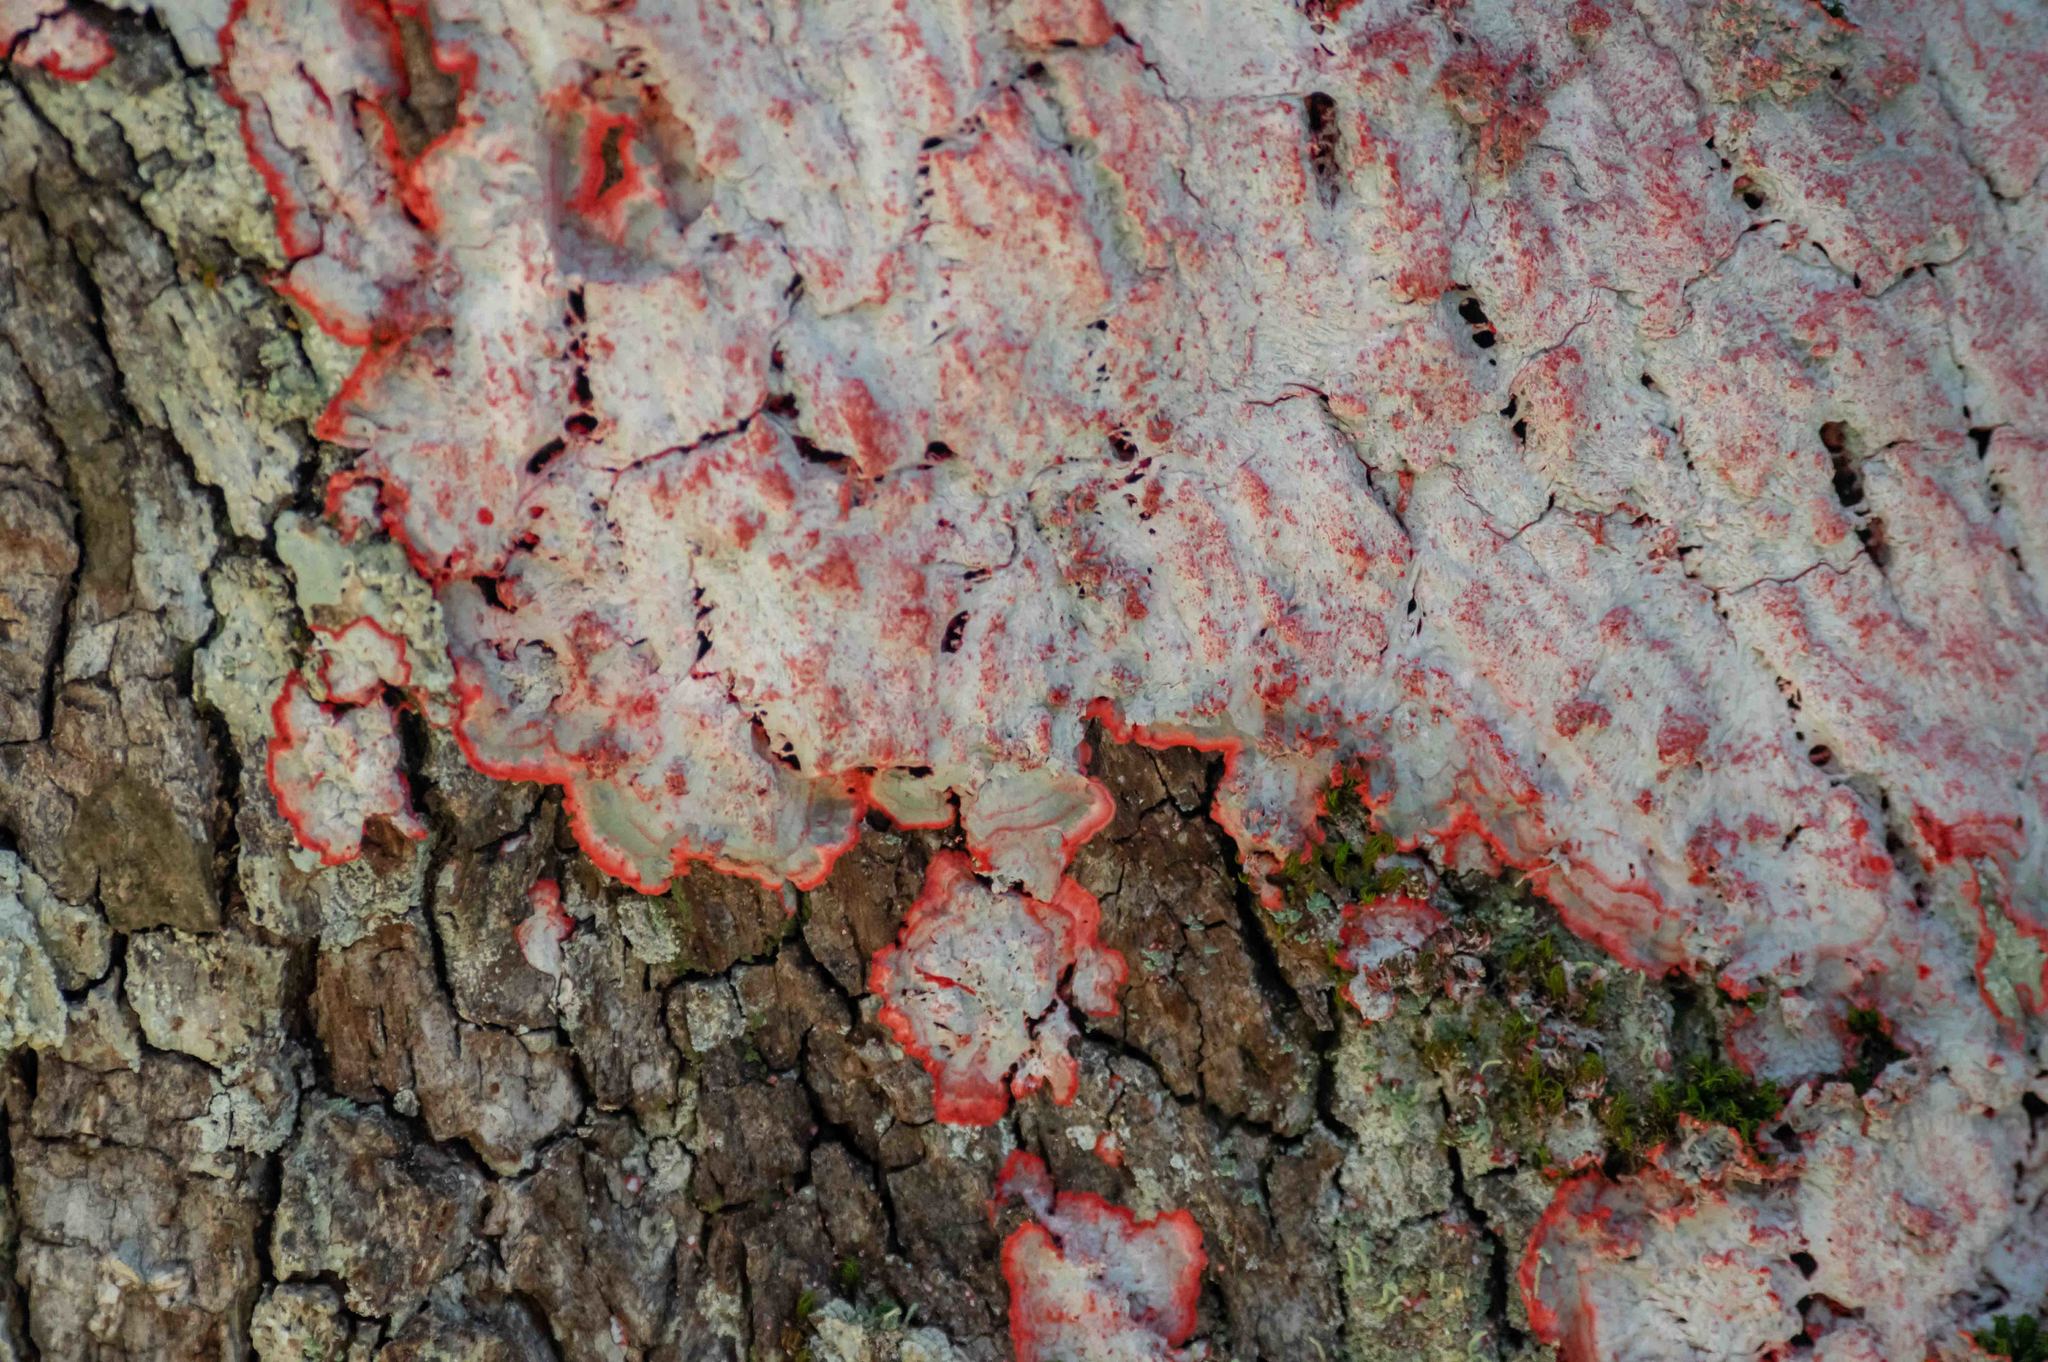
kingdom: Fungi
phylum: Ascomycota
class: Arthoniomycetes
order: Arthoniales
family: Arthoniaceae
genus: Herpothallon
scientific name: Herpothallon rubrocinctum
